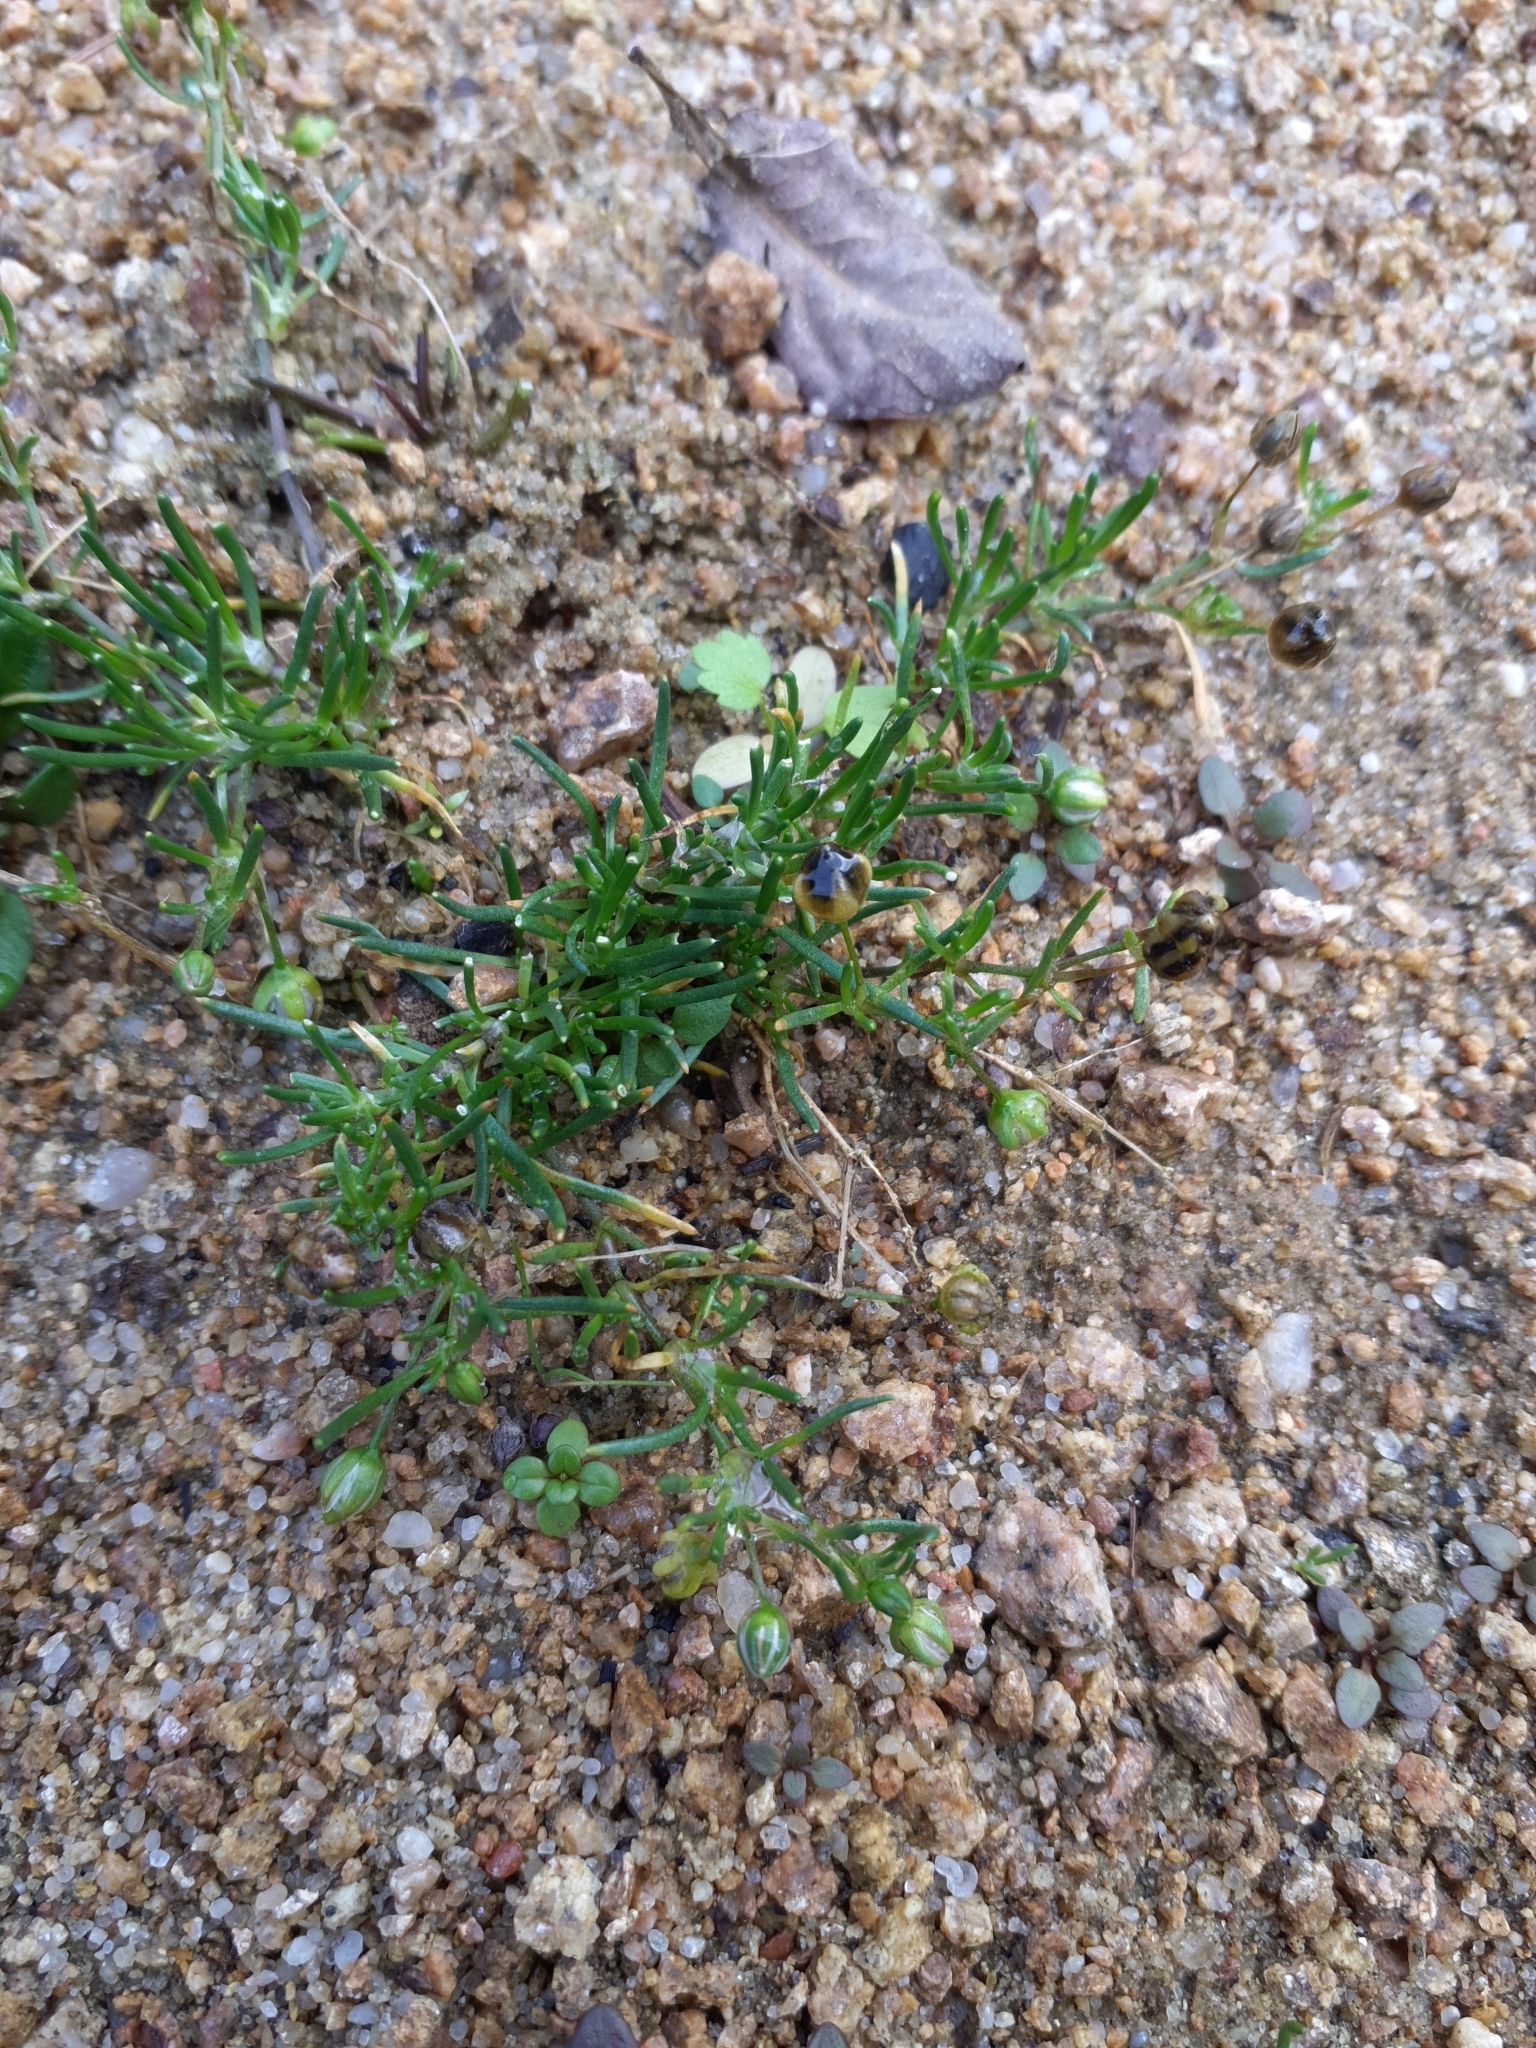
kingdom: Plantae
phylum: Tracheophyta
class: Magnoliopsida
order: Caryophyllales
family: Caryophyllaceae
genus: Spergularia
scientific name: Spergularia kurkae
